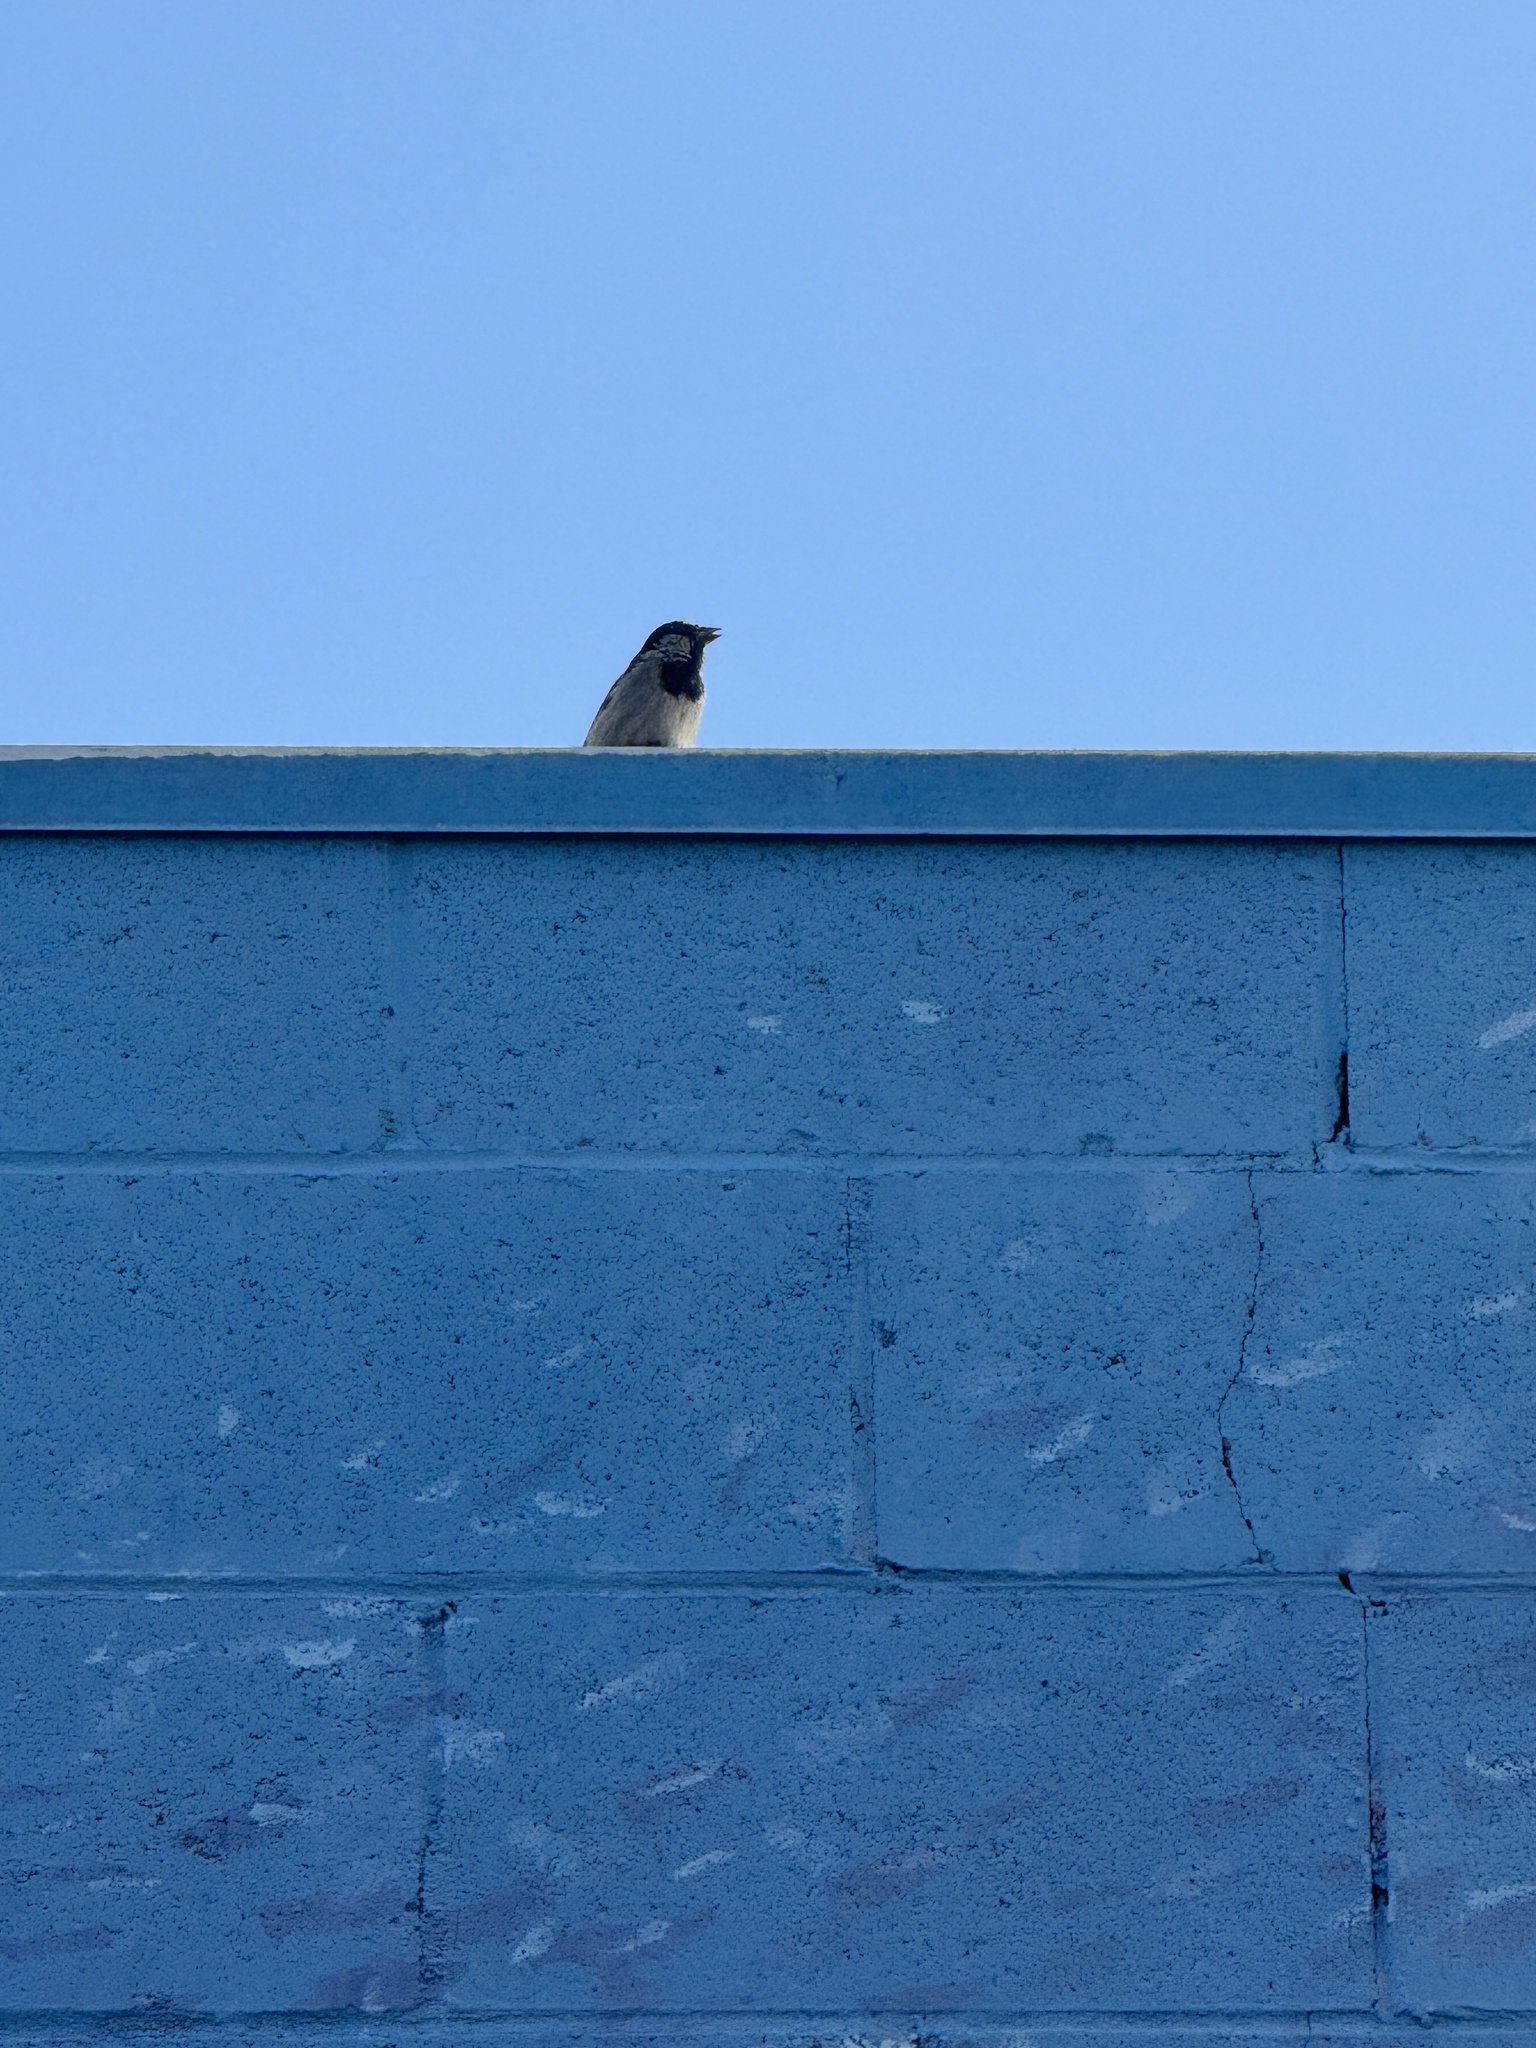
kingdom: Animalia
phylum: Chordata
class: Aves
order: Passeriformes
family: Passeridae
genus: Passer
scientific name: Passer domesticus
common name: House sparrow
